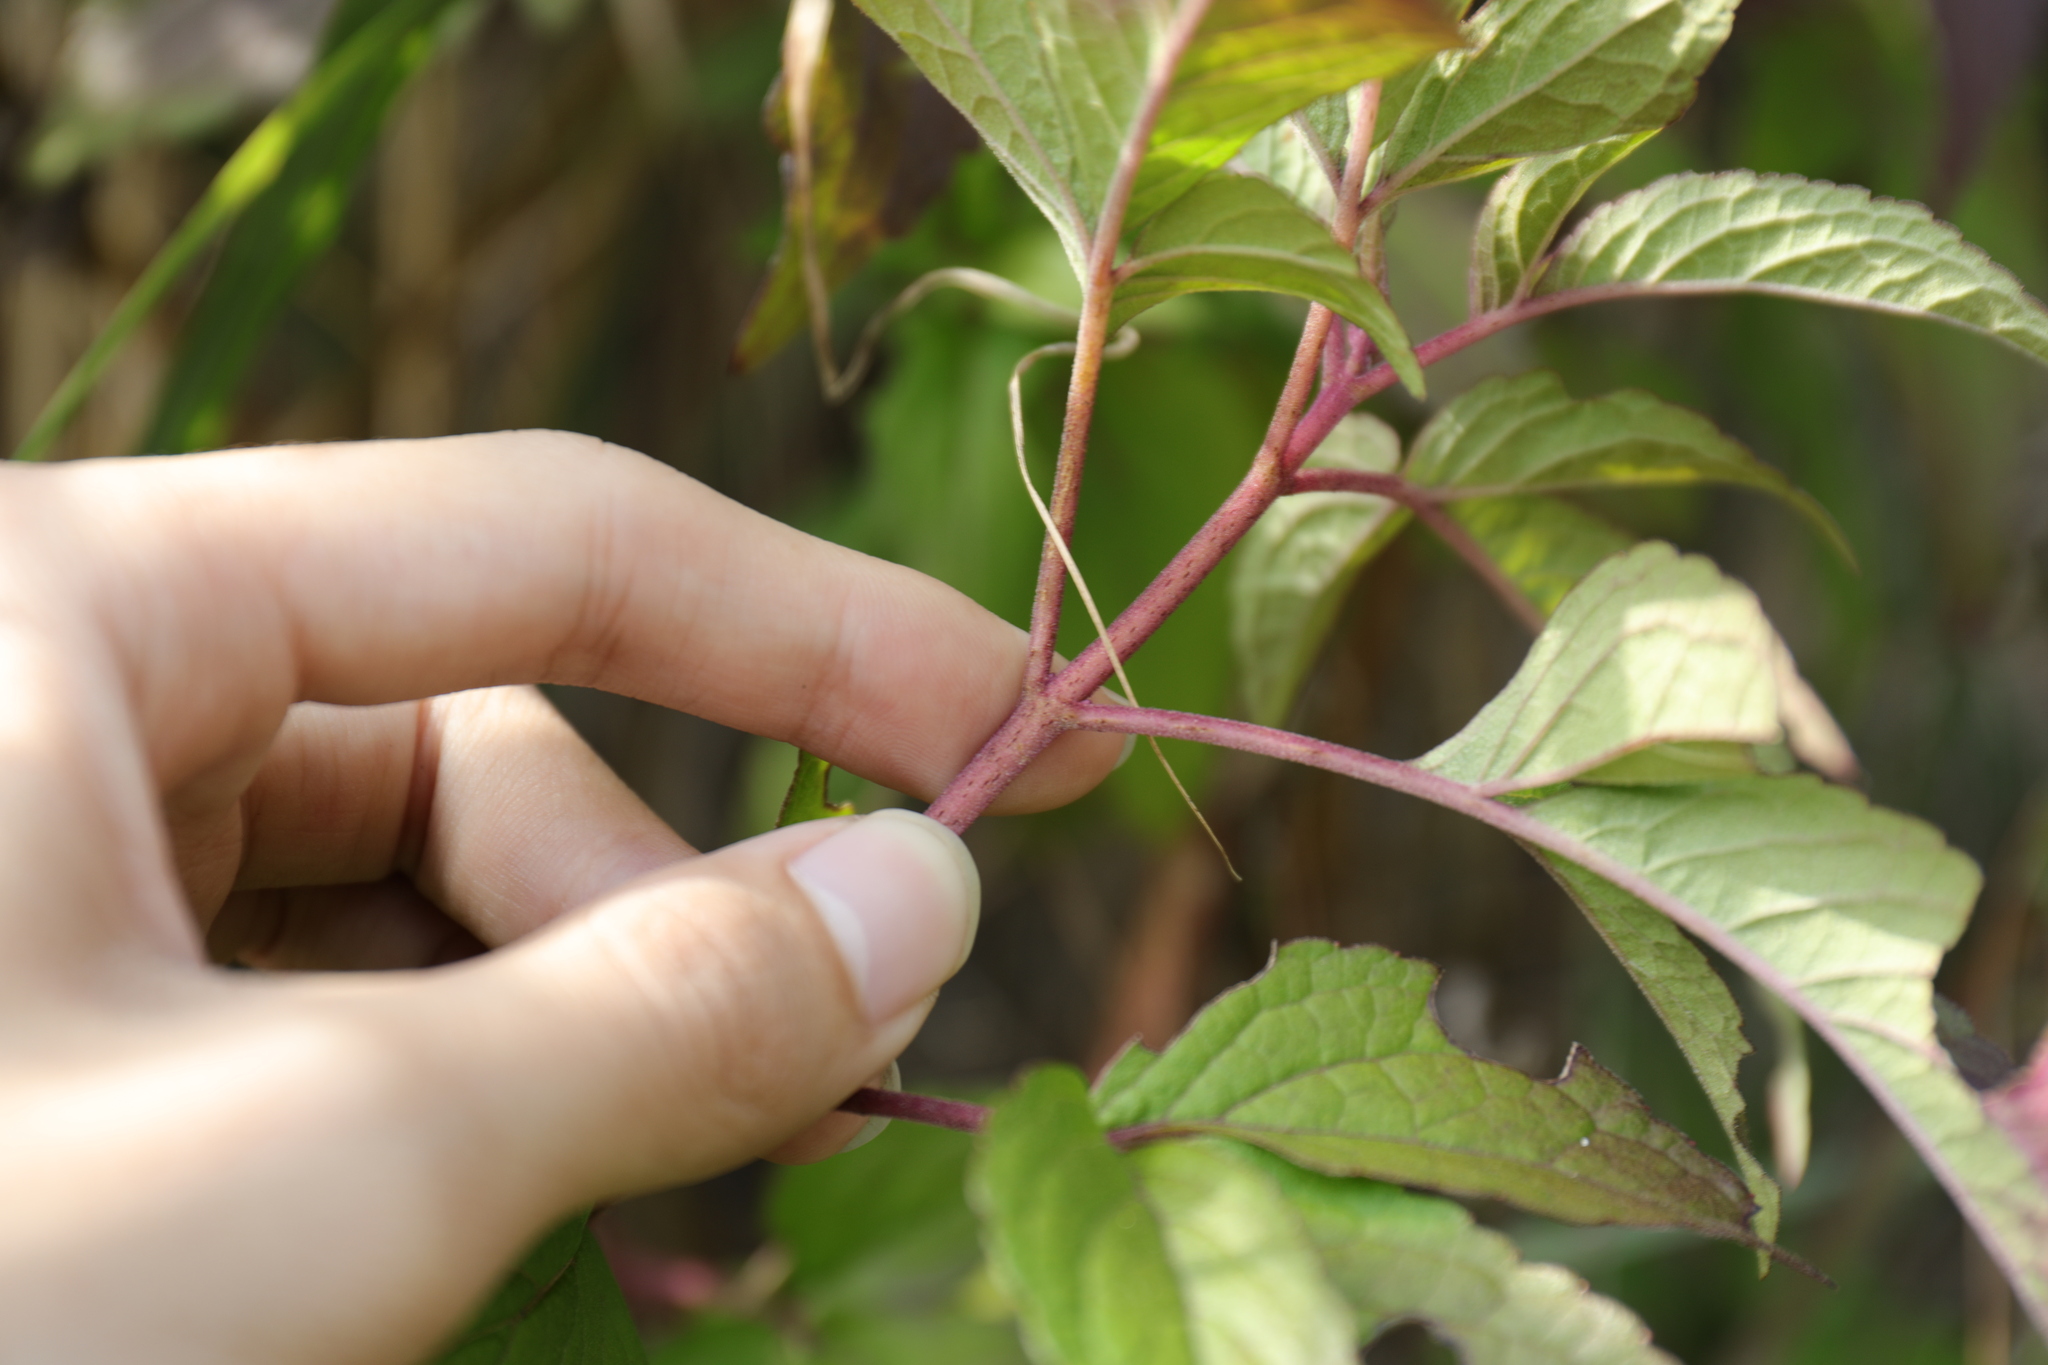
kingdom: Plantae
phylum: Tracheophyta
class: Magnoliopsida
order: Asterales
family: Asteraceae
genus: Eupatorium
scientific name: Eupatorium formosanum
